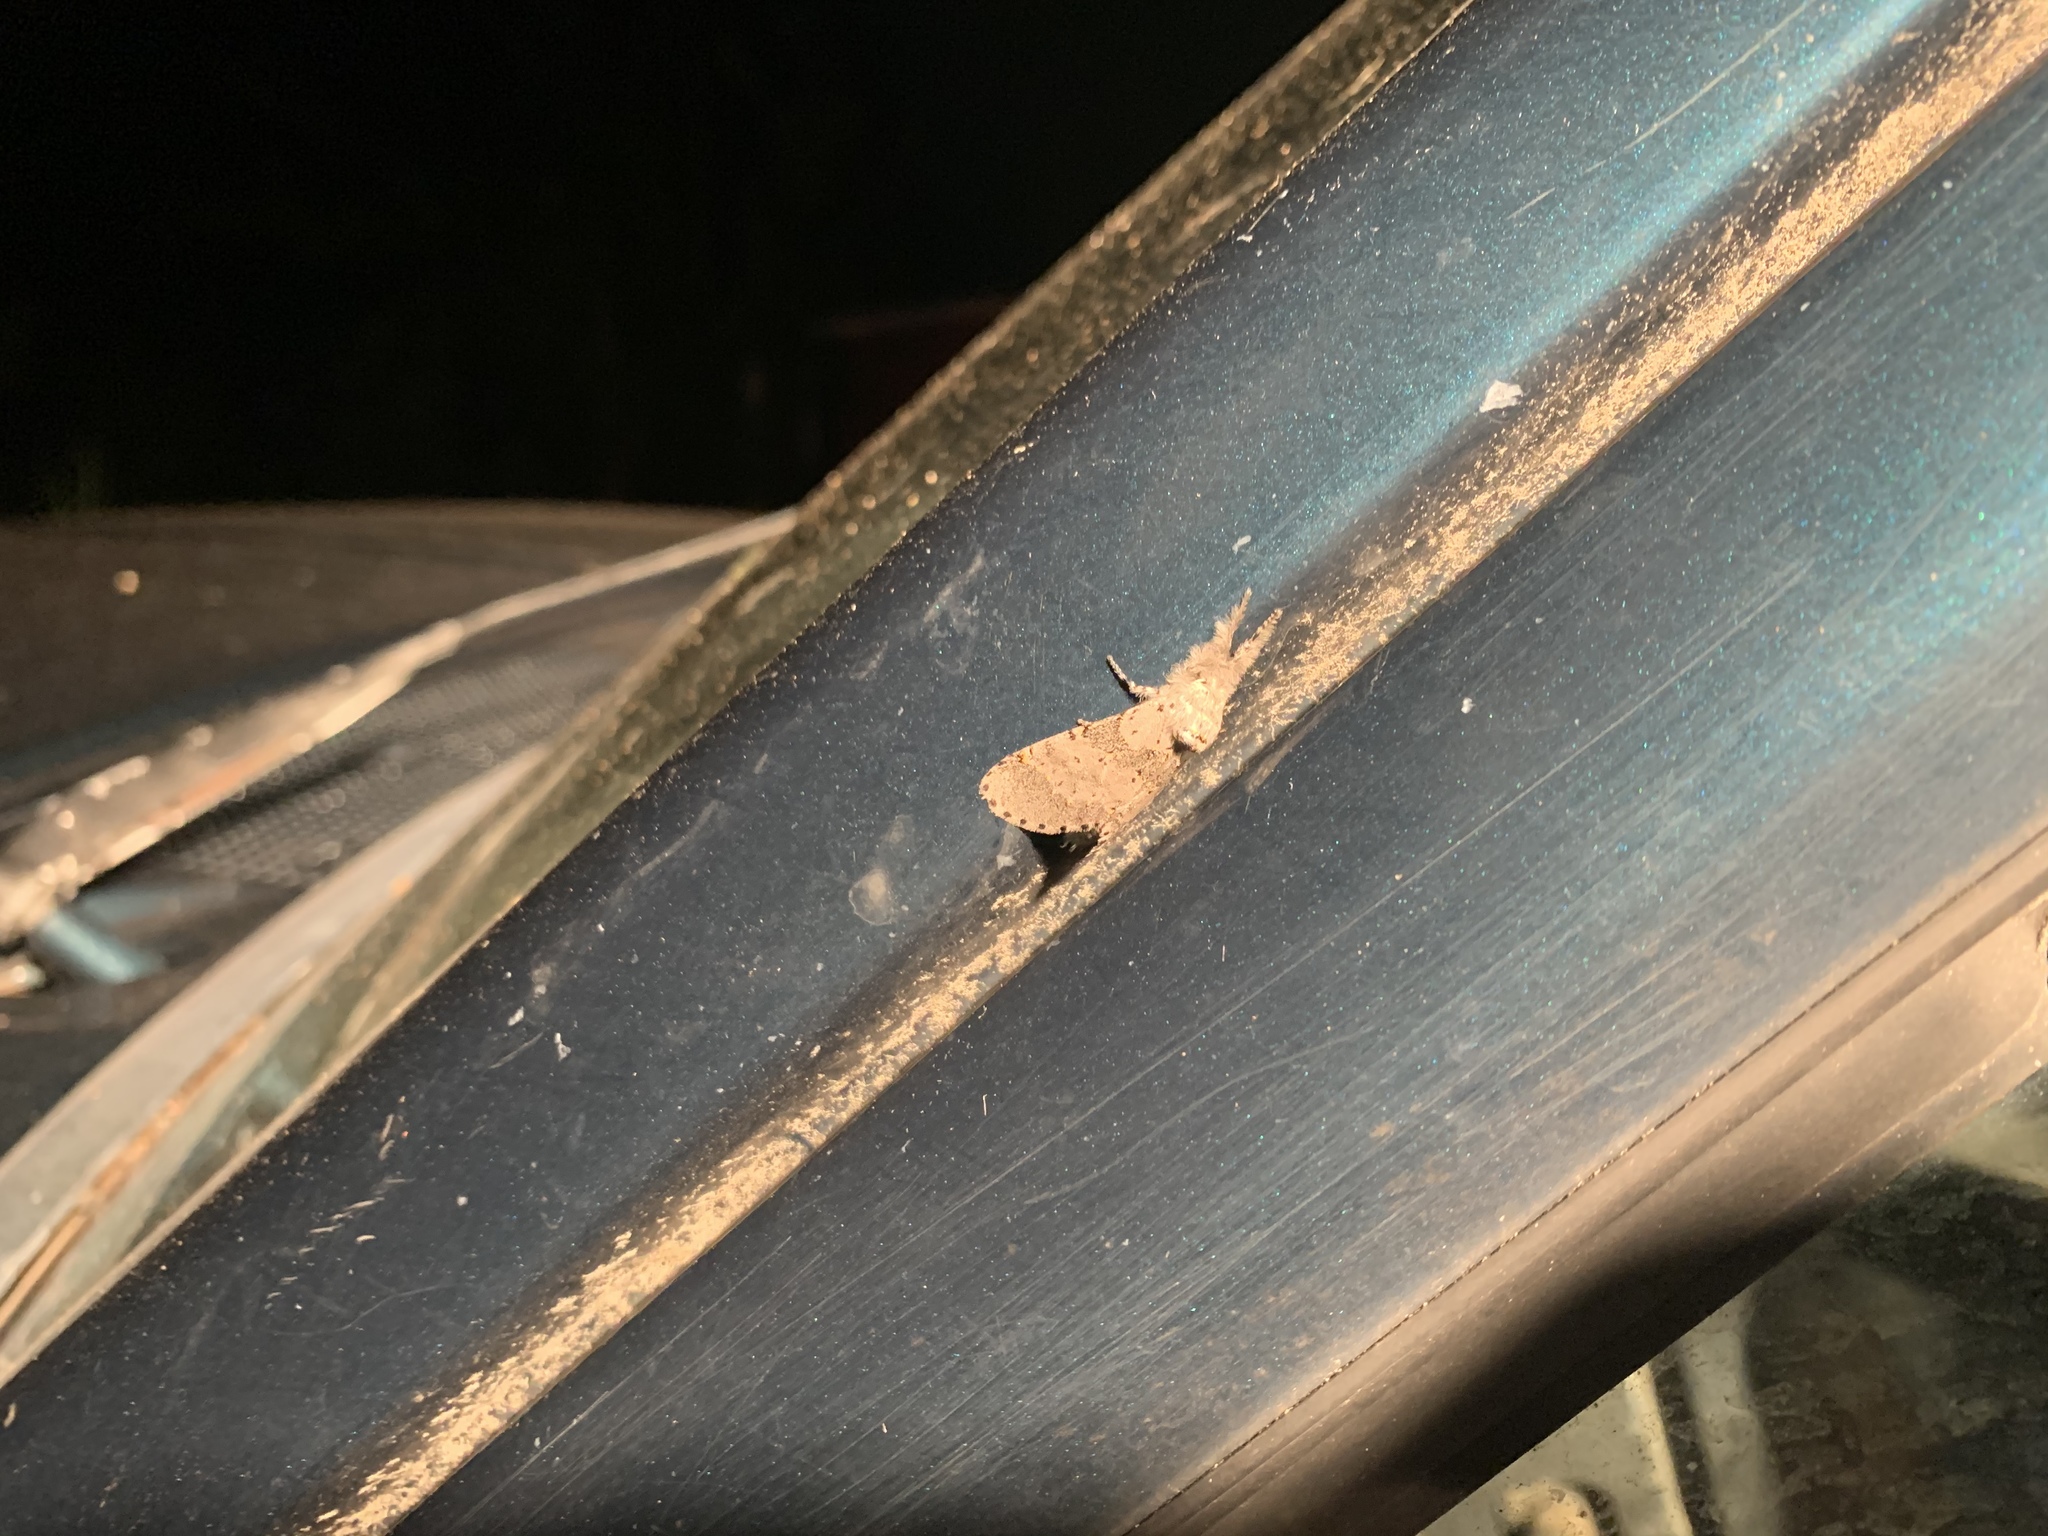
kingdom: Animalia
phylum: Arthropoda
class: Insecta
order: Lepidoptera
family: Notodontidae
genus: Furcula
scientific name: Furcula cinerea
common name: Gray furcula
